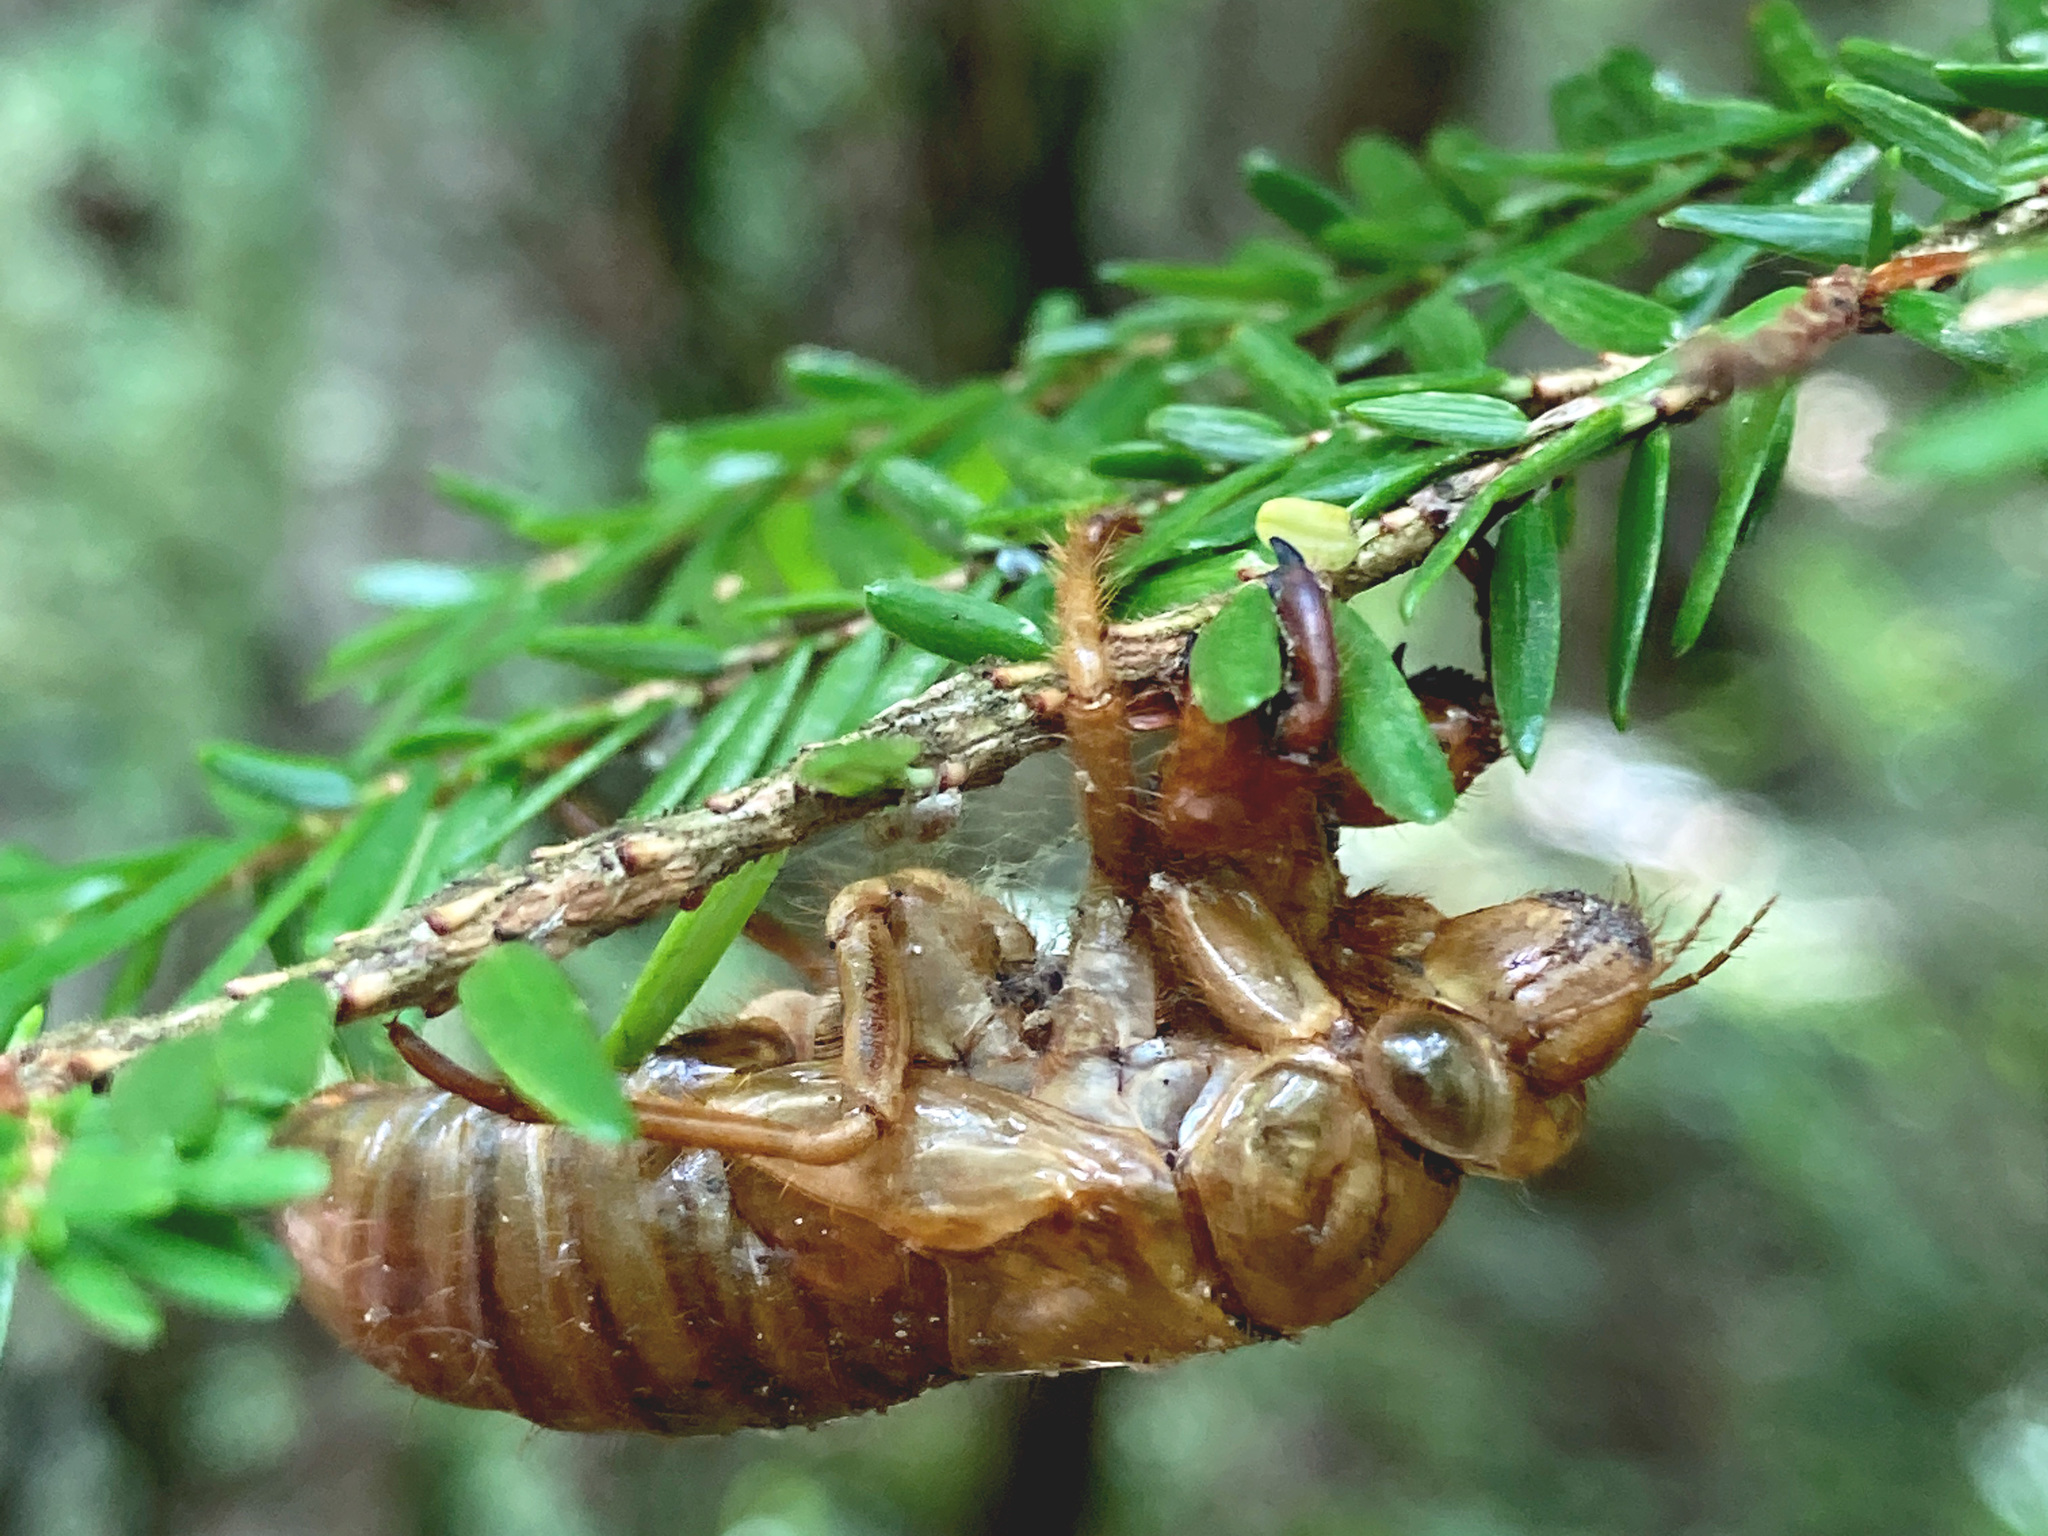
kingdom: Animalia
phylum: Arthropoda
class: Insecta
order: Hemiptera
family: Cicadidae
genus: Magicicada
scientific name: Magicicada
